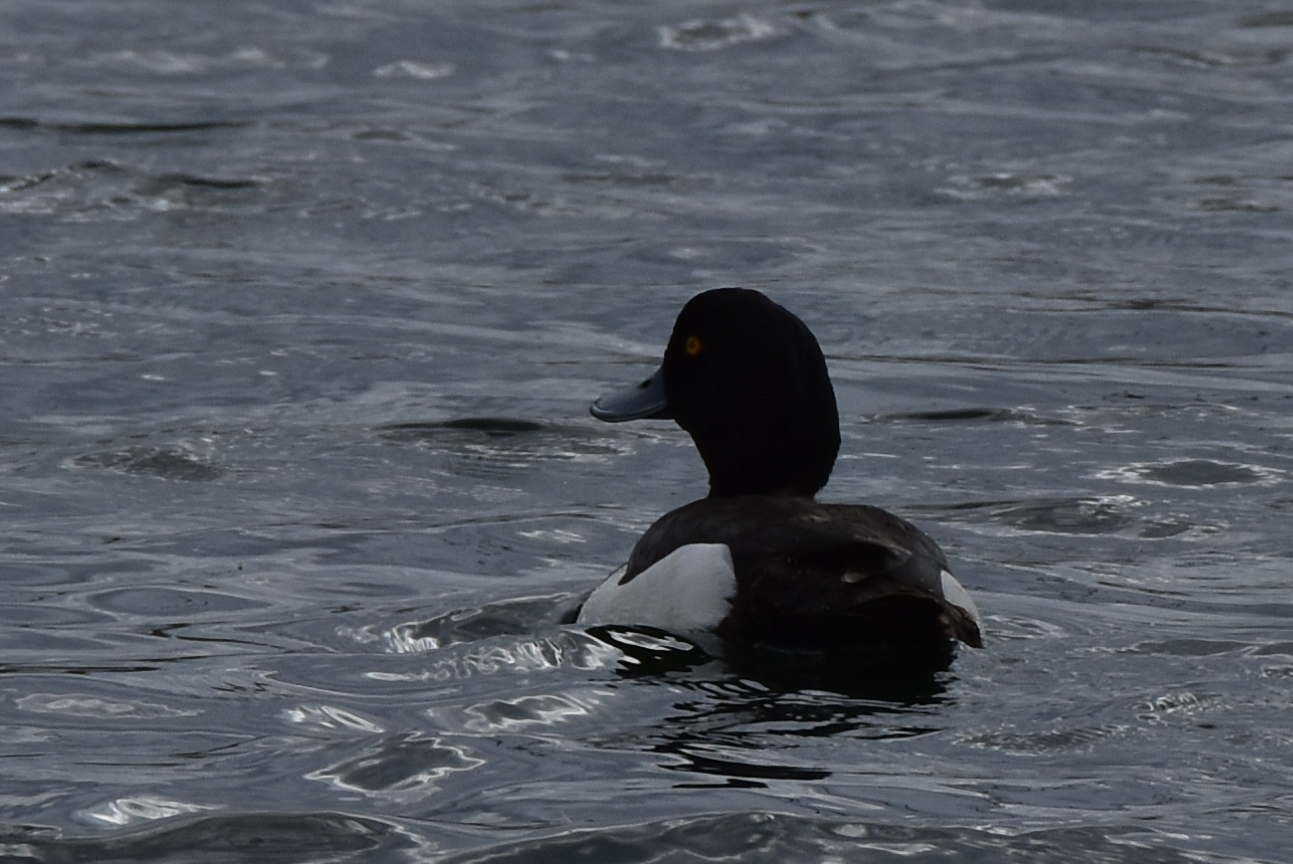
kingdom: Animalia
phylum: Chordata
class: Aves
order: Anseriformes
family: Anatidae
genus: Aythya
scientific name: Aythya fuligula
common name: Tufted duck
